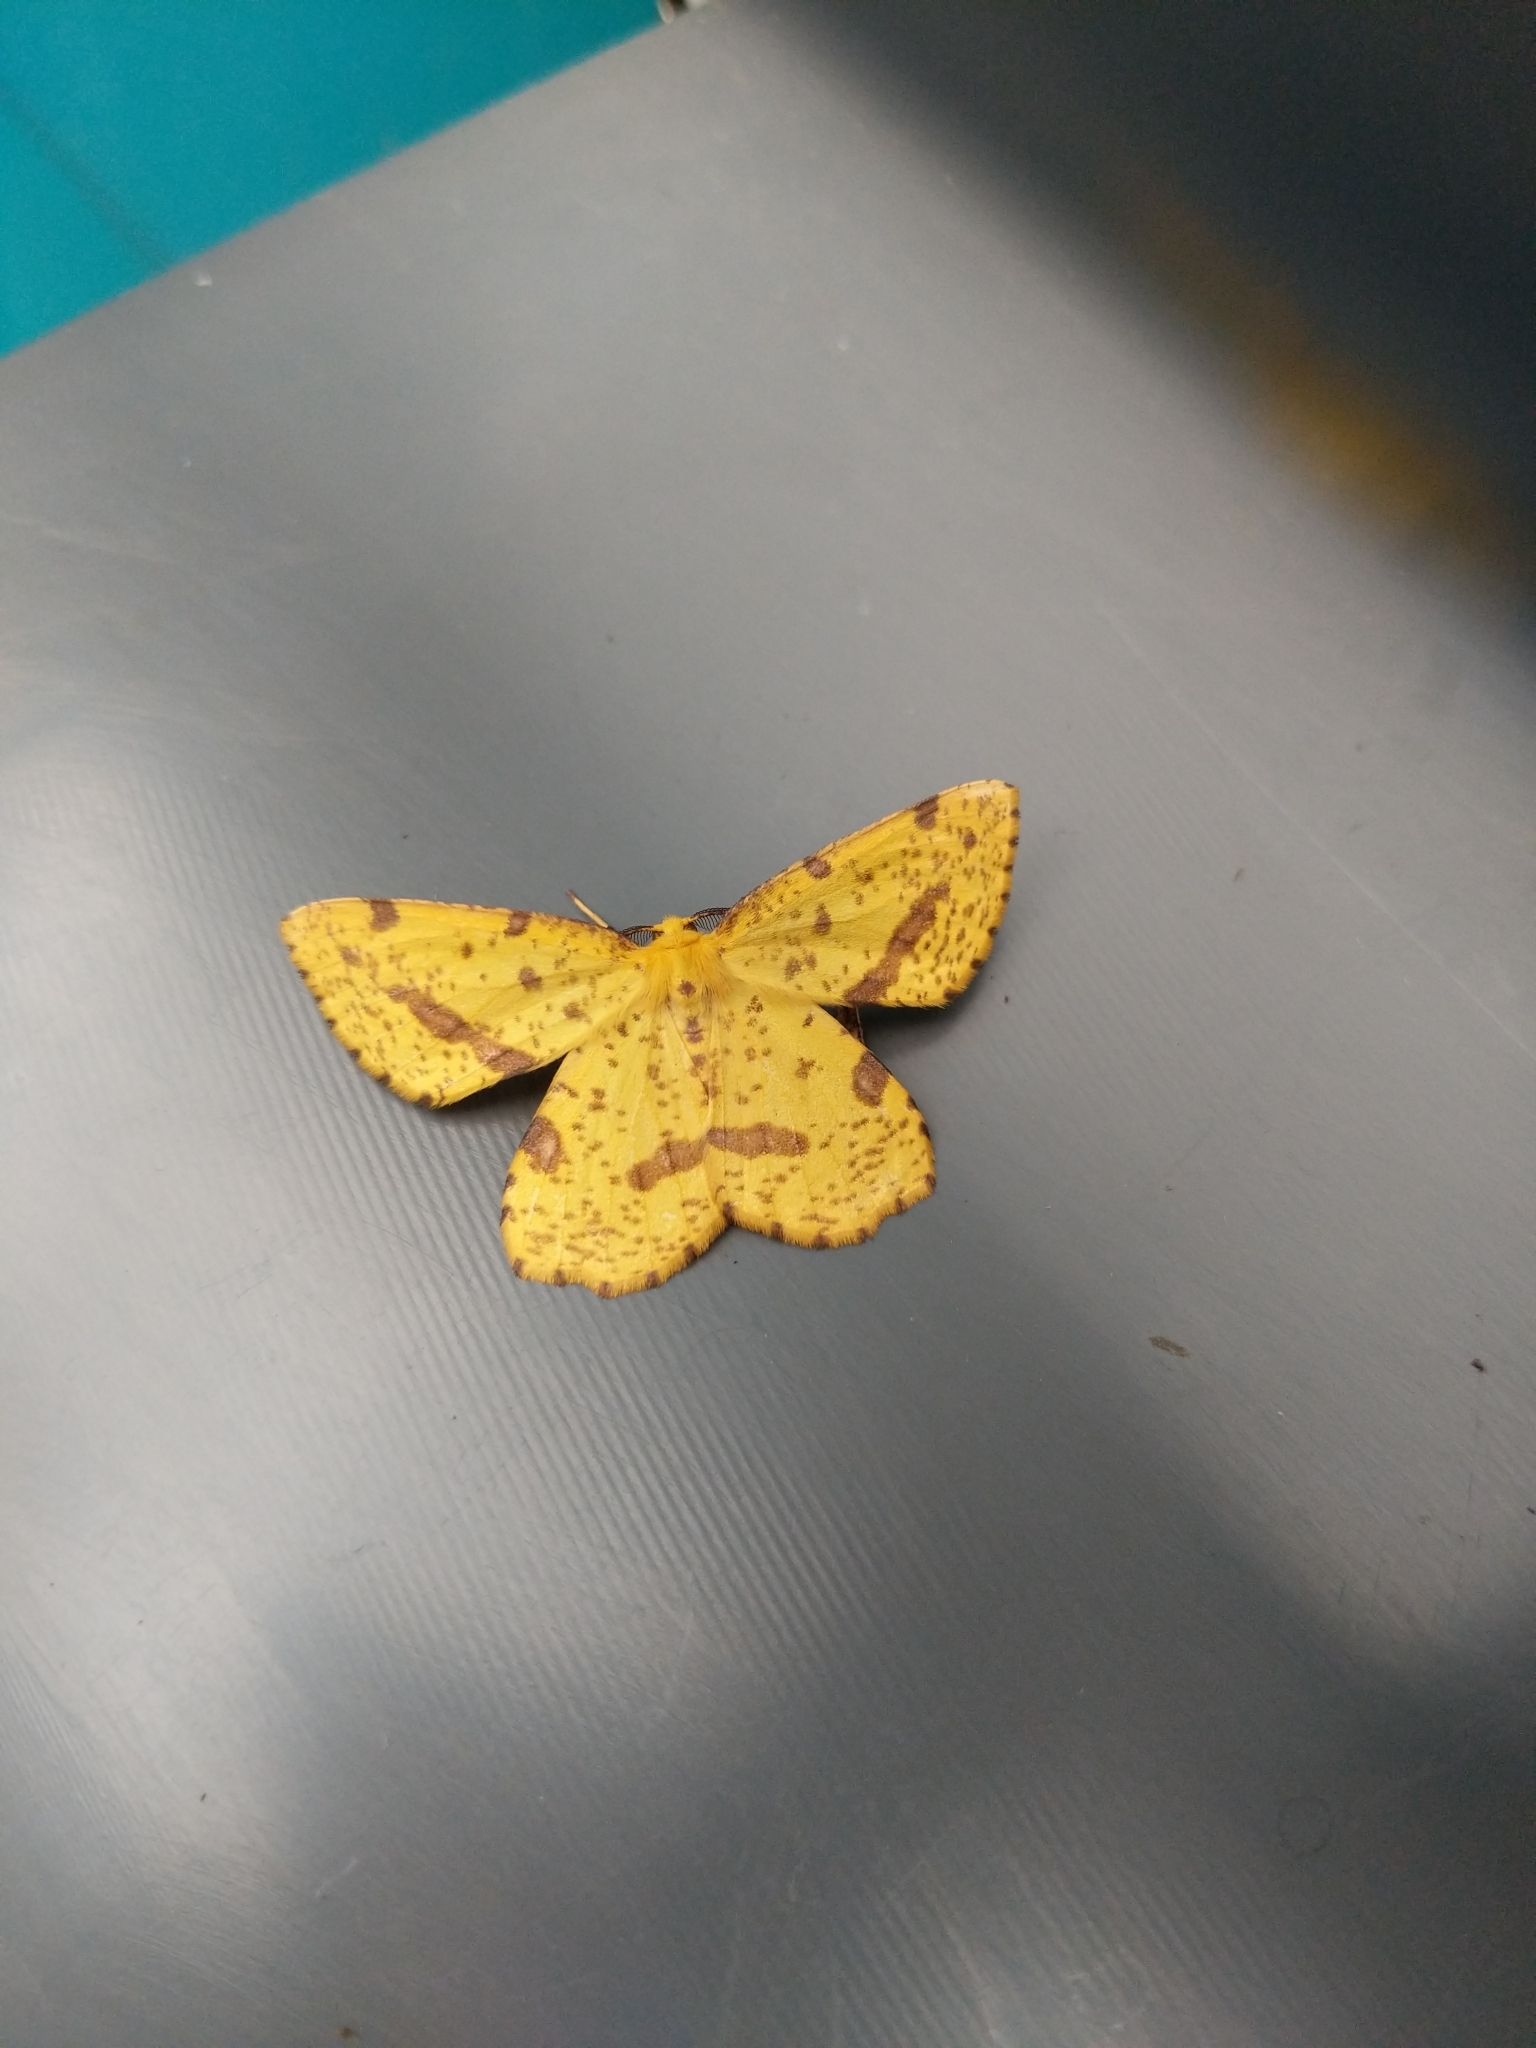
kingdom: Animalia
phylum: Arthropoda
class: Insecta
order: Lepidoptera
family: Geometridae
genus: Xanthotype
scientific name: Xanthotype
